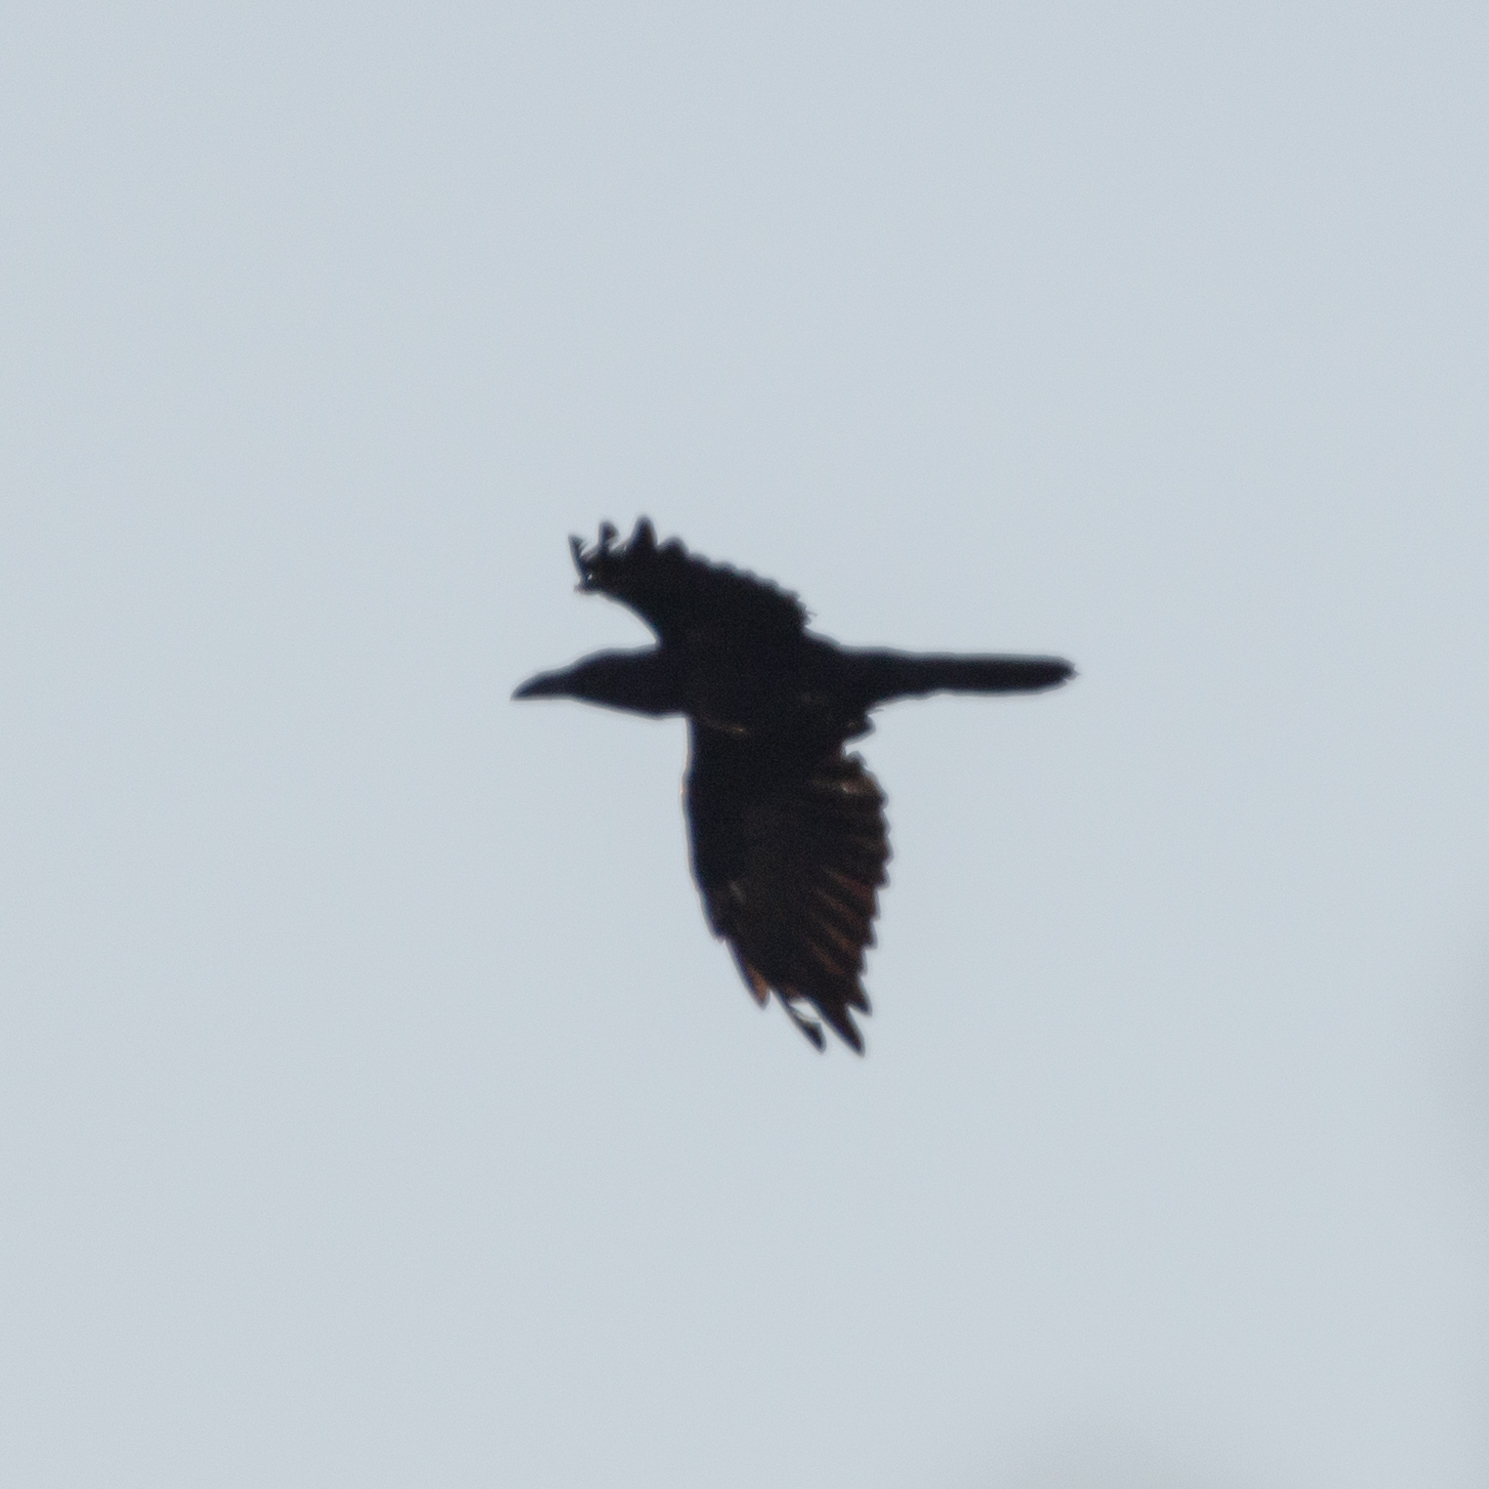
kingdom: Animalia
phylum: Chordata
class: Aves
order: Passeriformes
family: Corvidae
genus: Corvus
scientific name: Corvus corax
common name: Common raven
